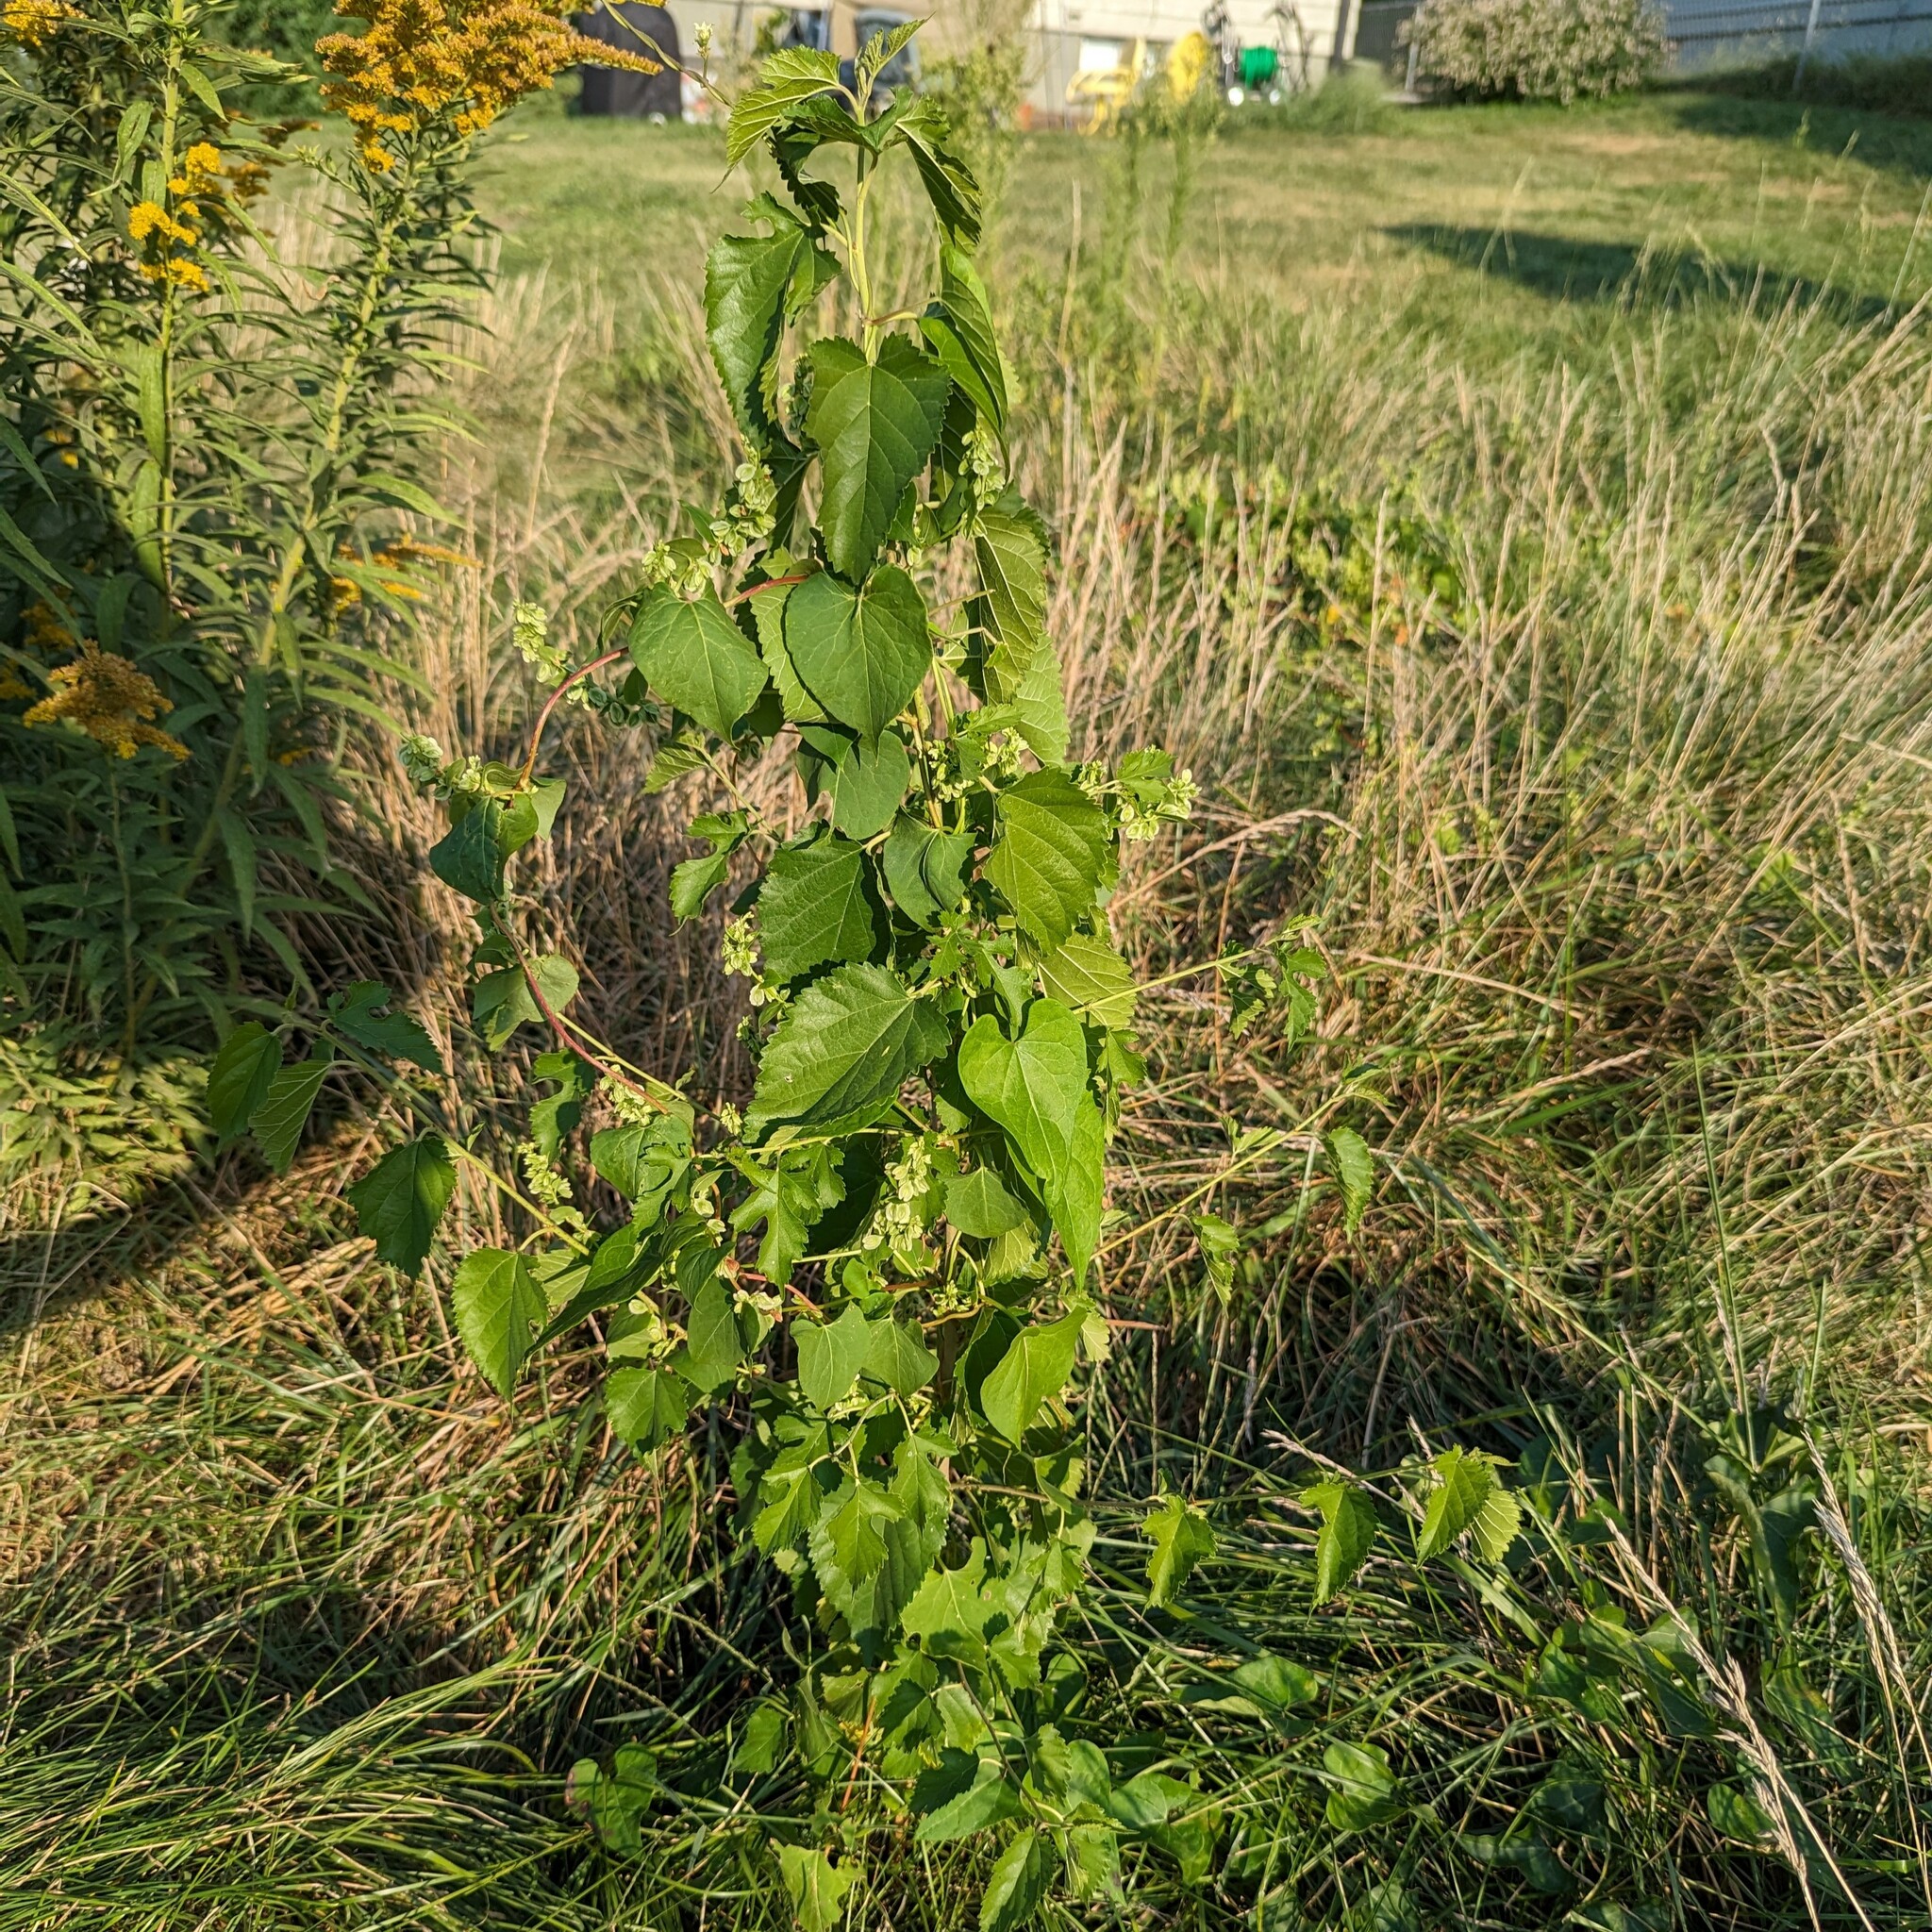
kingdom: Plantae
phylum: Tracheophyta
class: Magnoliopsida
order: Rosales
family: Moraceae
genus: Morus
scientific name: Morus alba
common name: White mulberry
